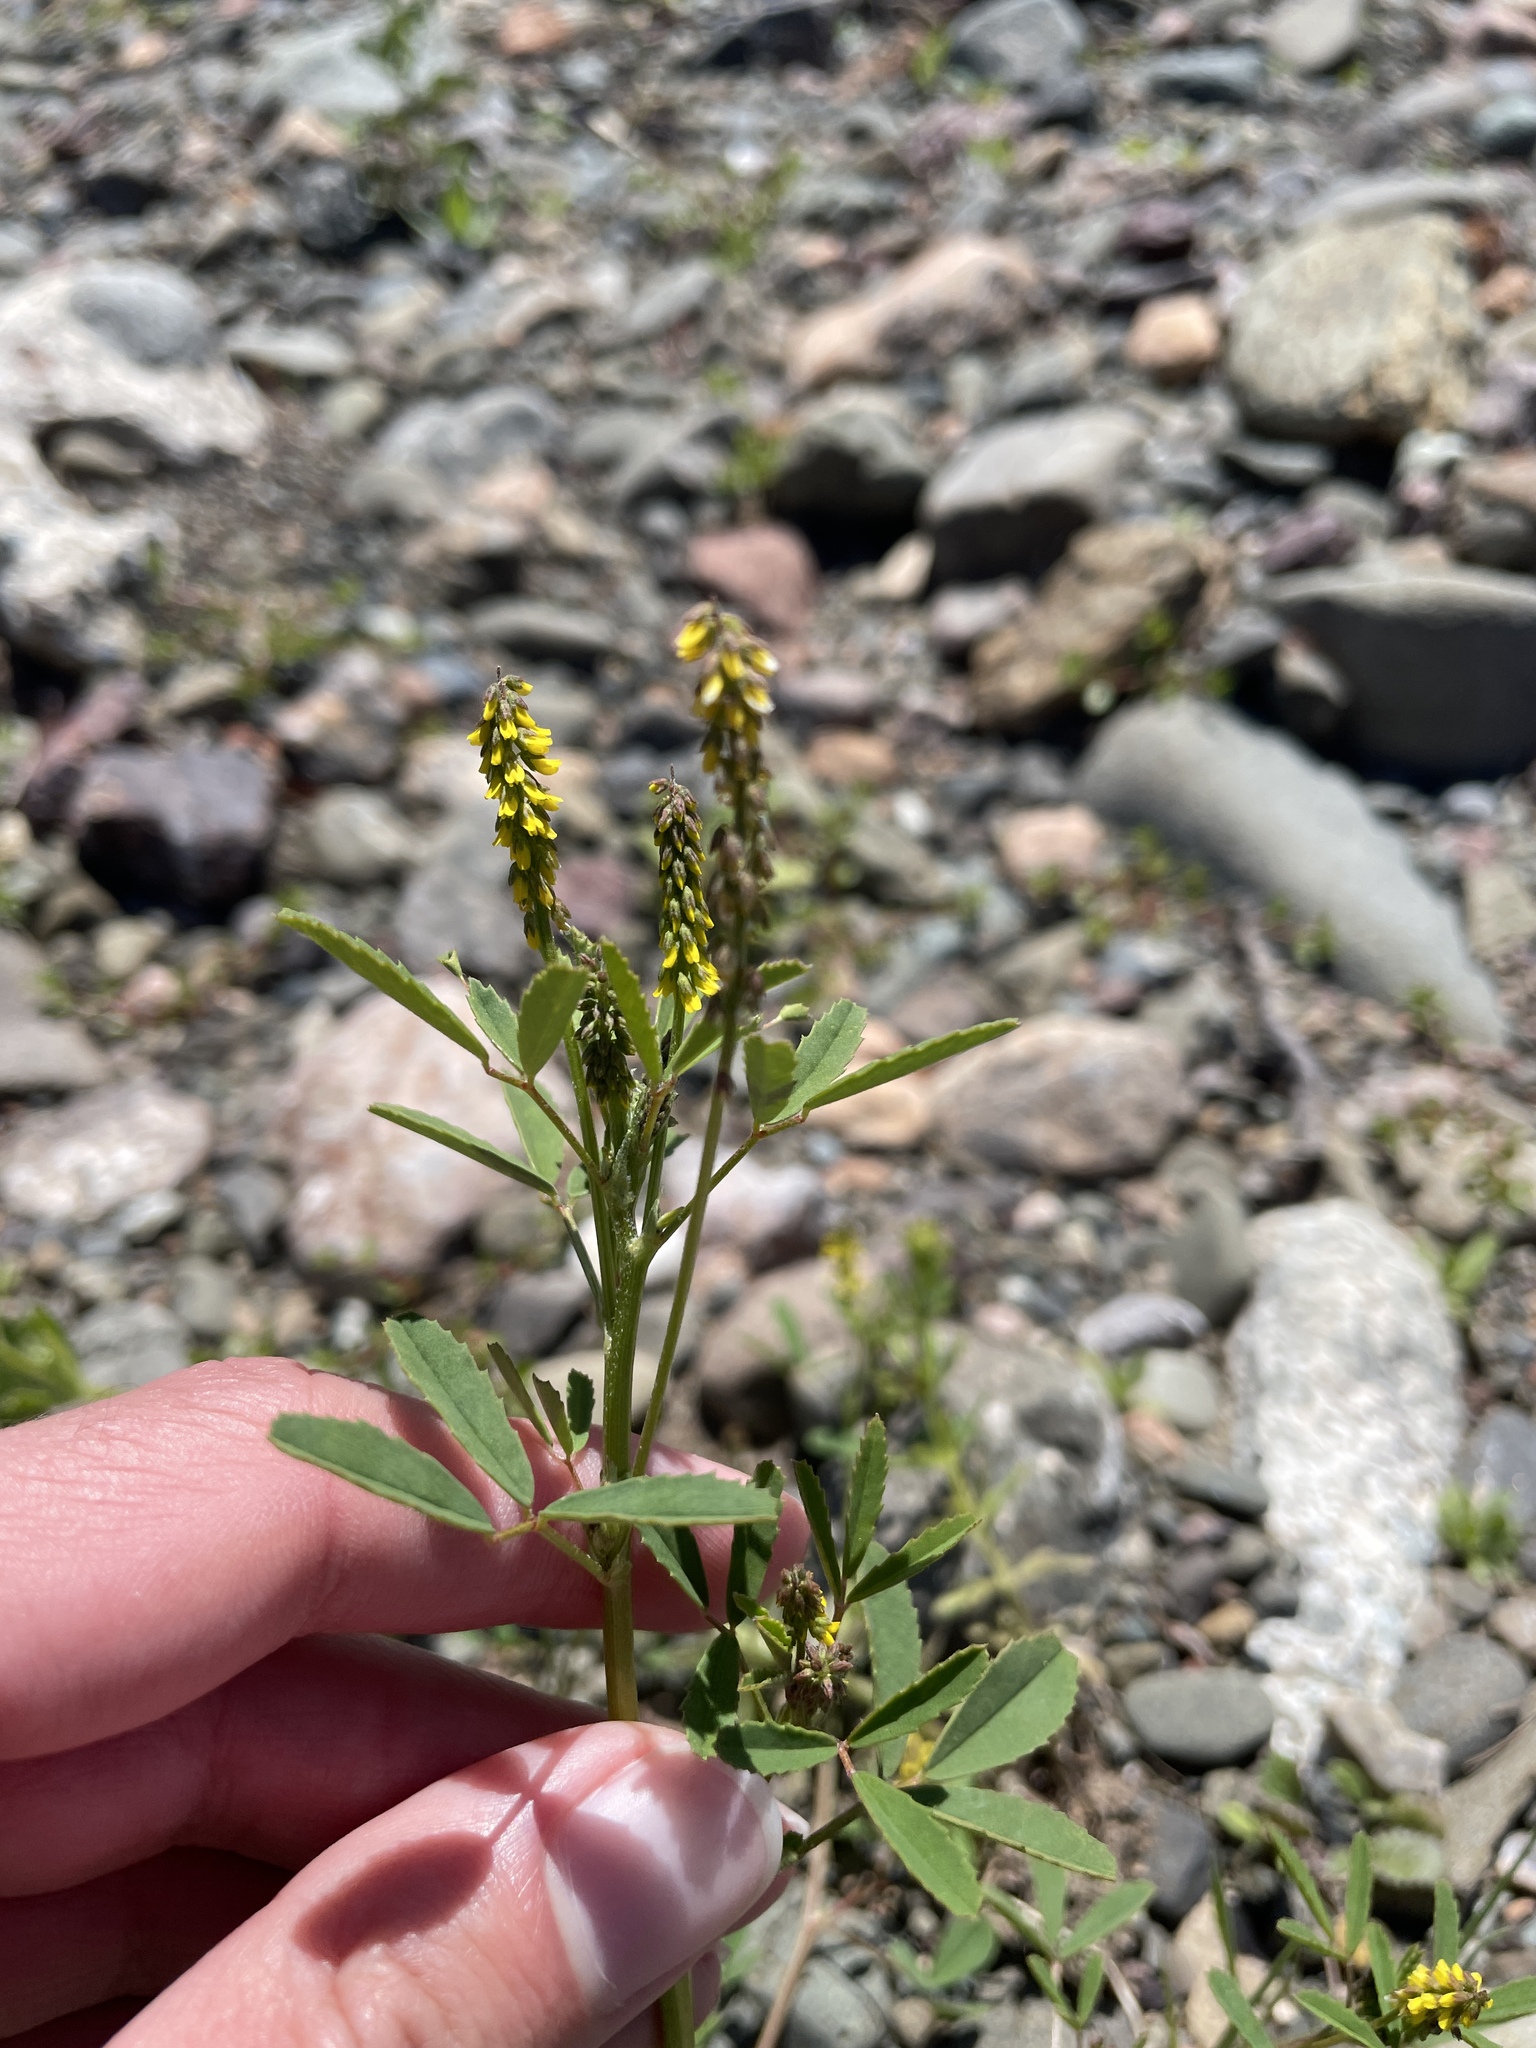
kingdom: Plantae
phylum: Tracheophyta
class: Magnoliopsida
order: Fabales
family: Fabaceae
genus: Melilotus
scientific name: Melilotus indicus
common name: Small melilot
